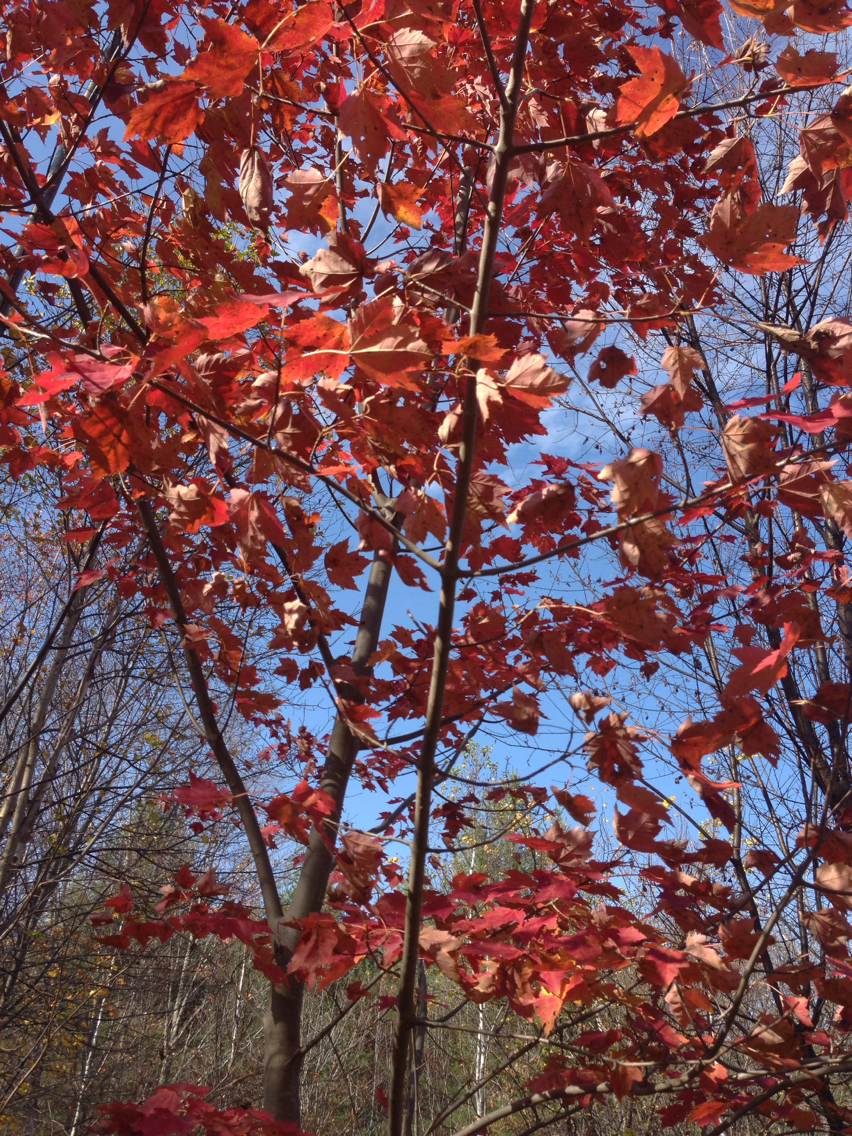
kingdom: Plantae
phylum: Tracheophyta
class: Magnoliopsida
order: Sapindales
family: Sapindaceae
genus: Acer
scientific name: Acer rubrum
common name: Red maple
